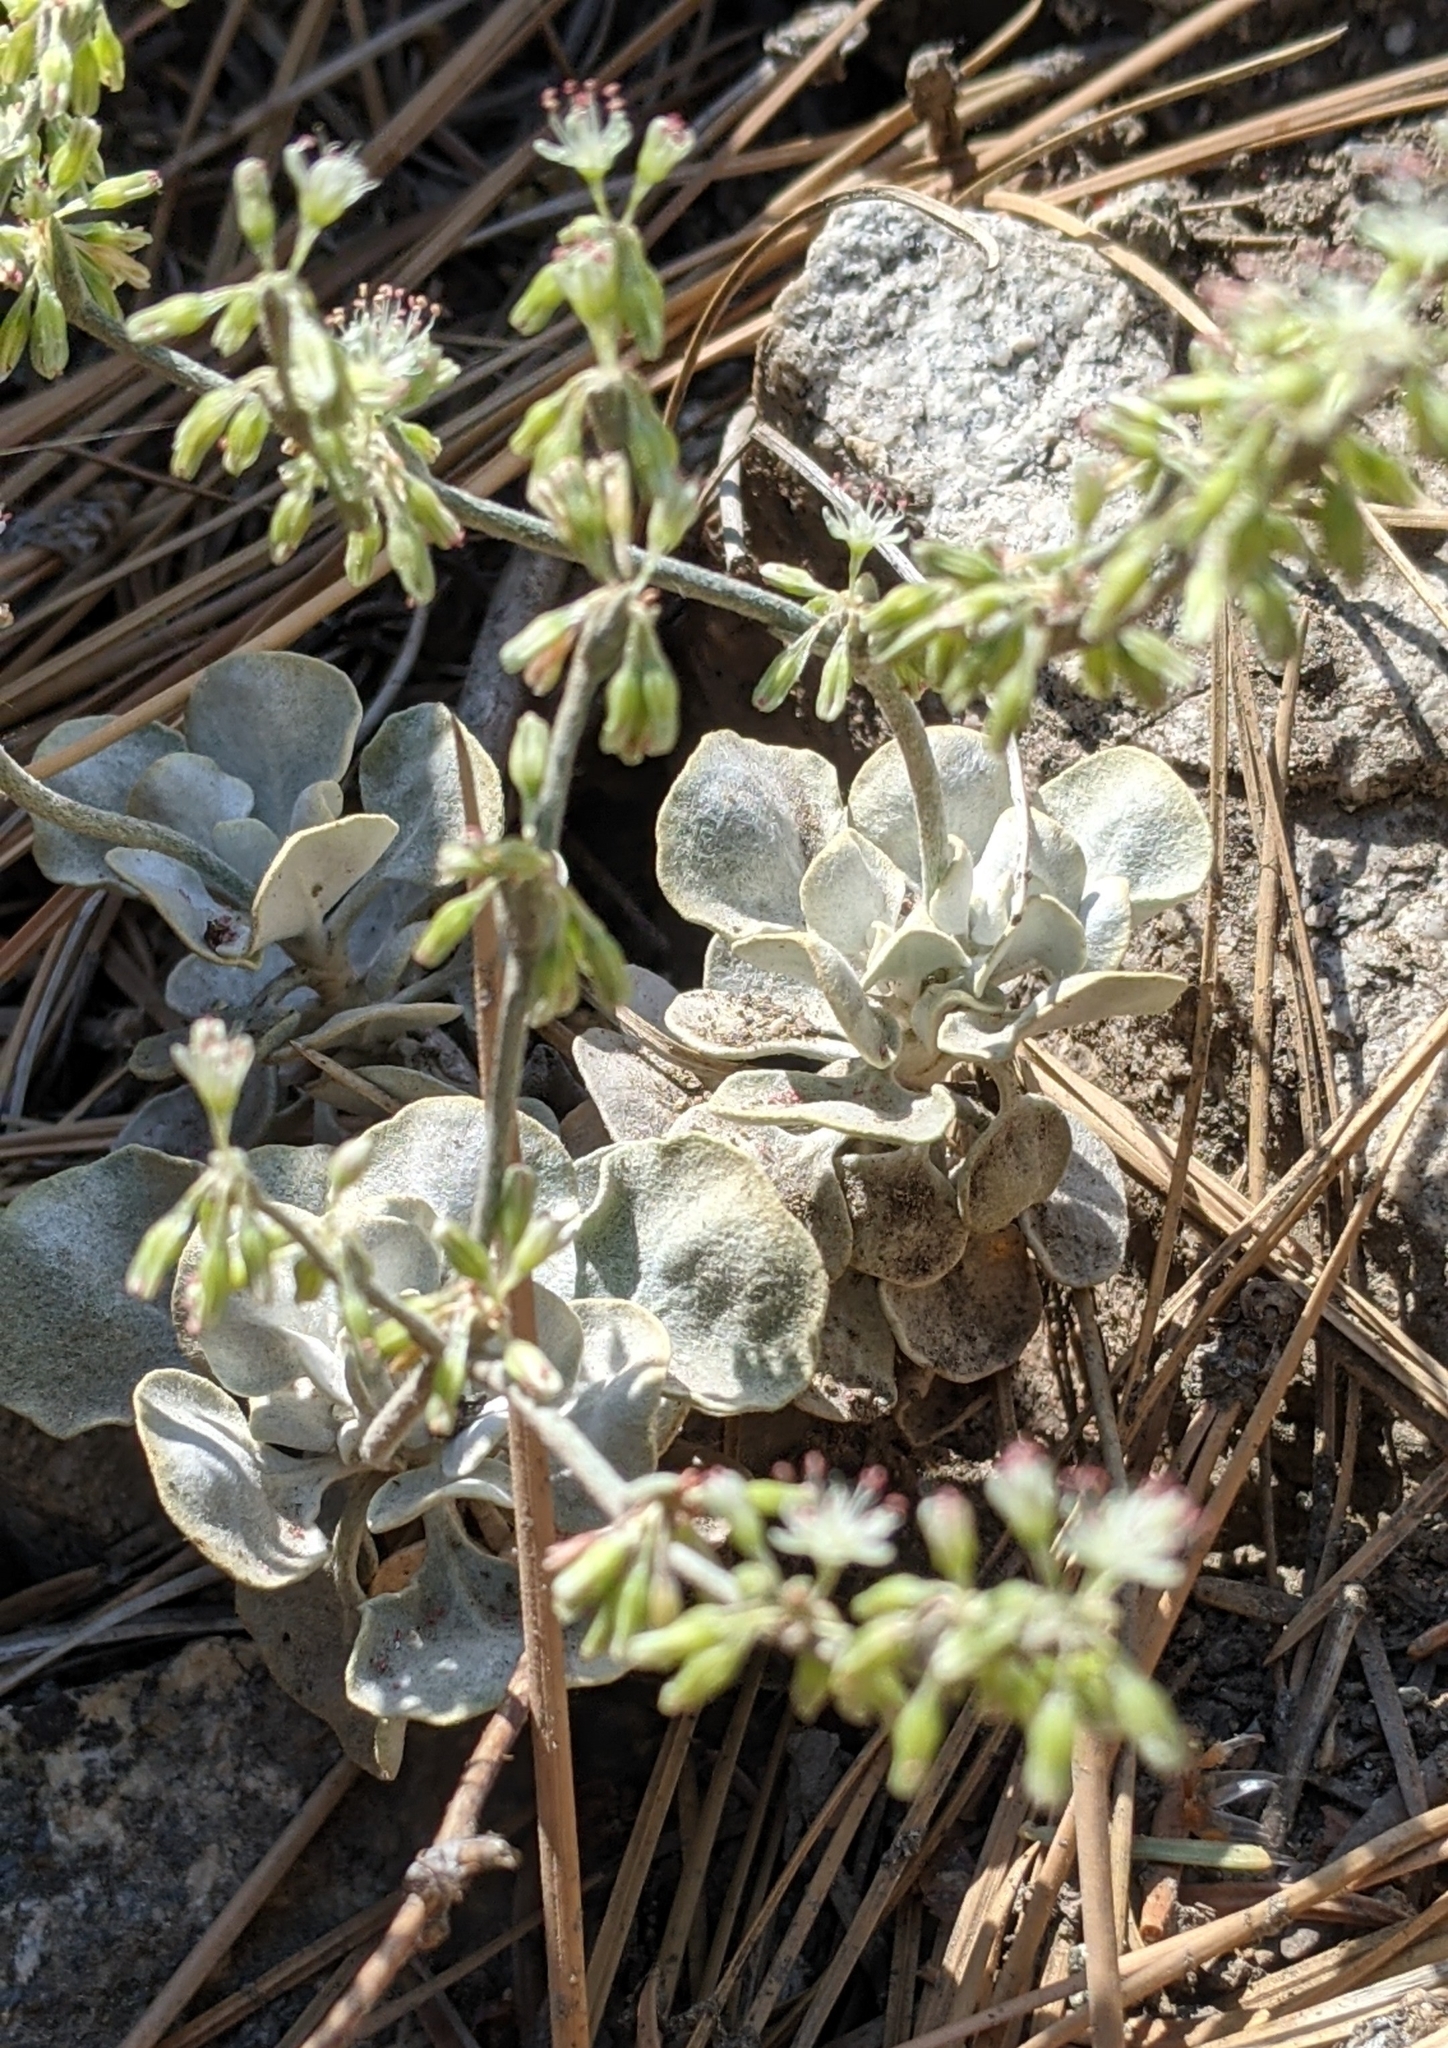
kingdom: Plantae
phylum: Tracheophyta
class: Magnoliopsida
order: Caryophyllales
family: Polygonaceae
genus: Eriogonum
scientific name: Eriogonum saxatile
